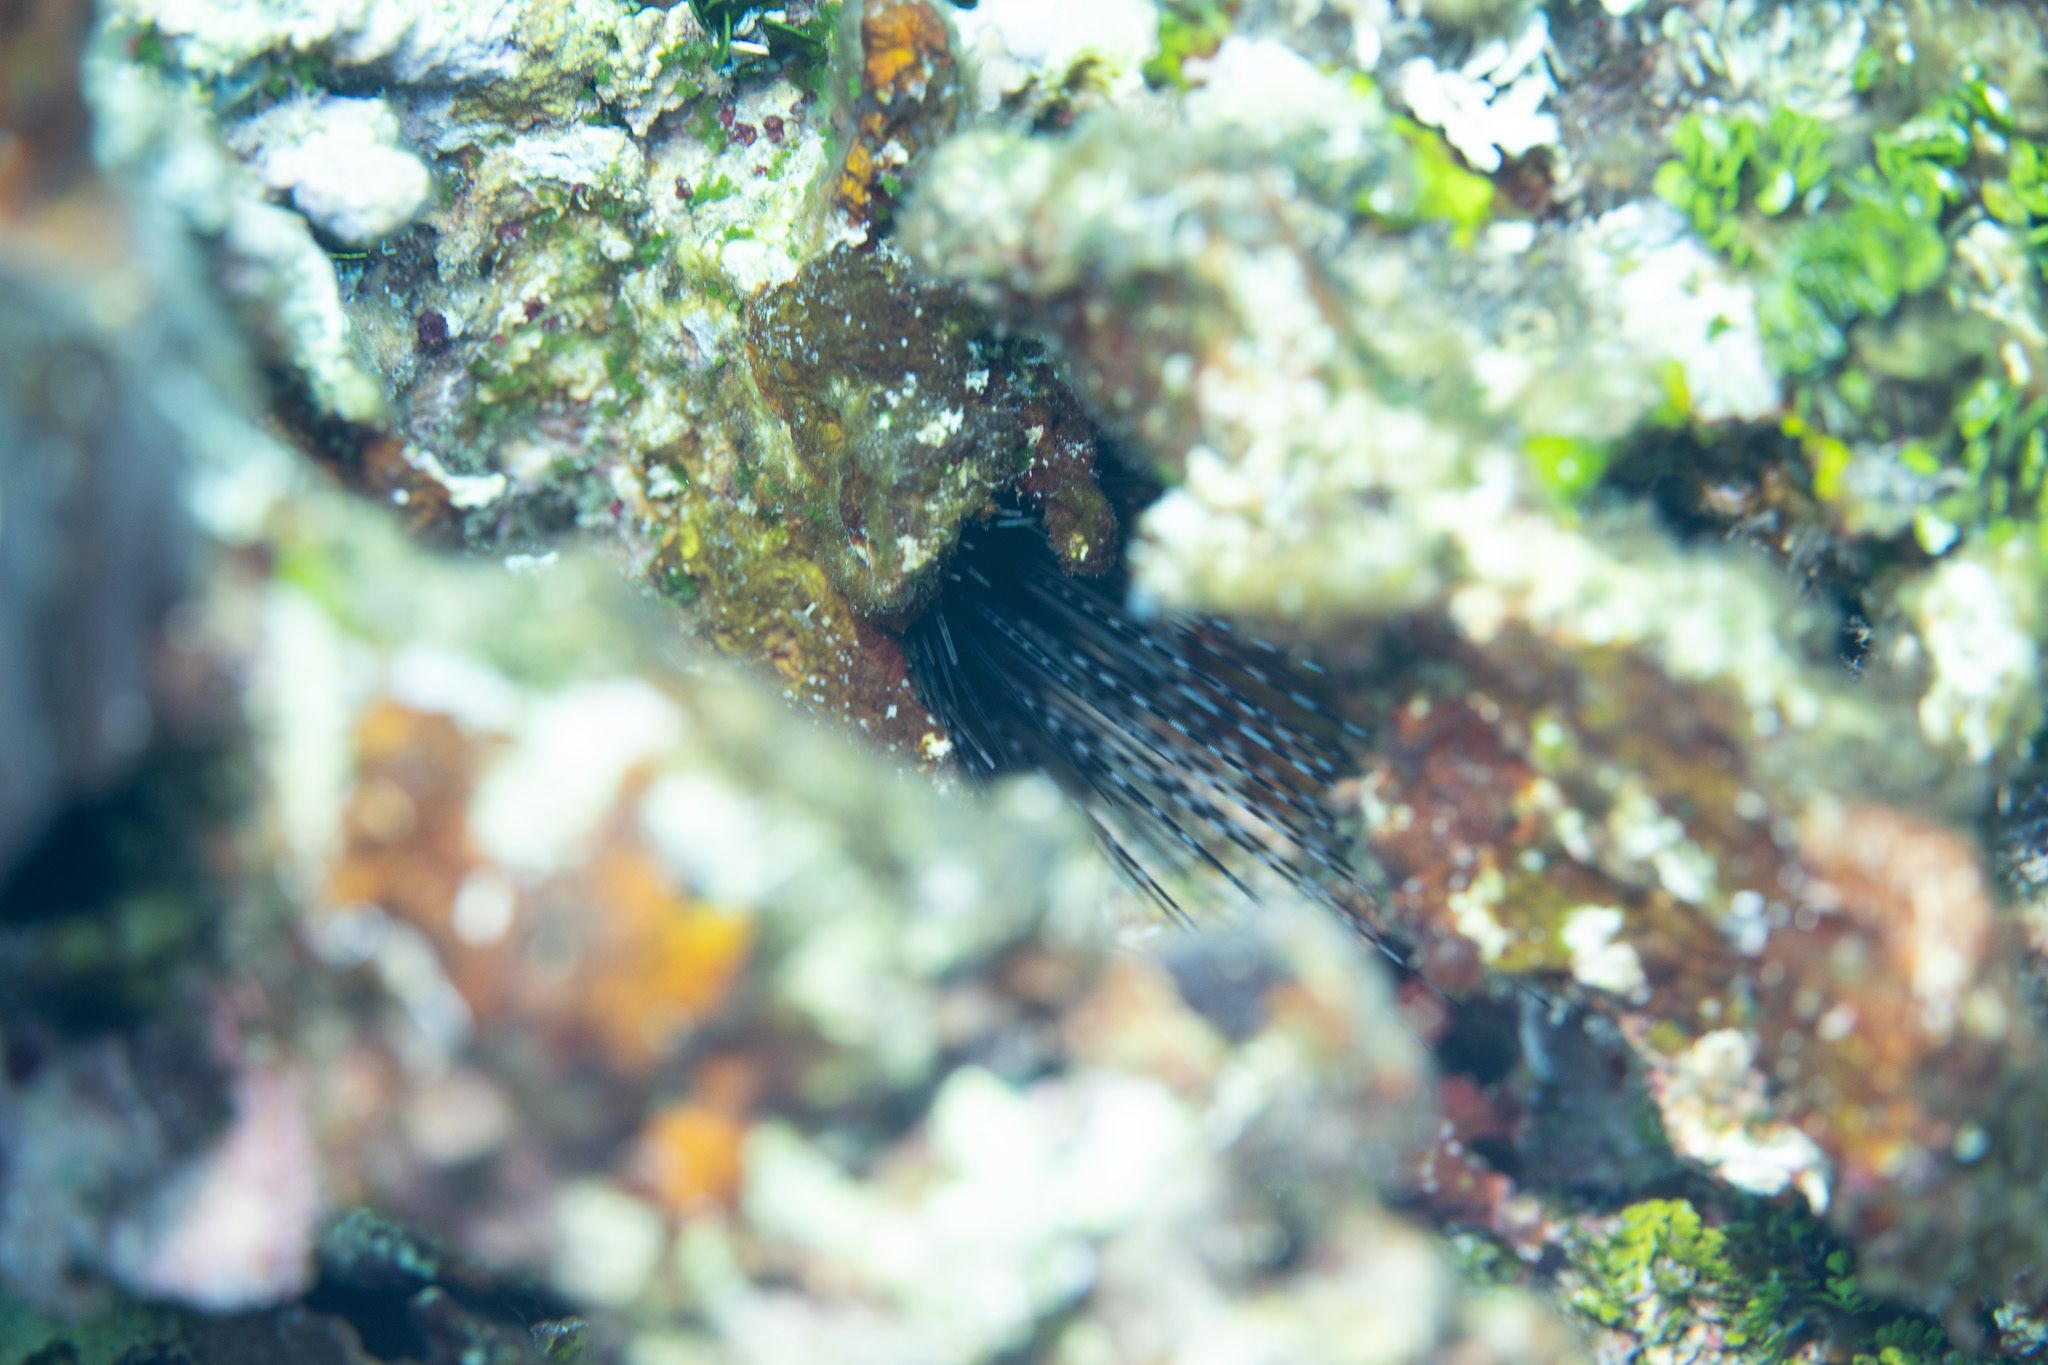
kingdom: Animalia
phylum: Echinodermata
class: Echinoidea
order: Diadematoida
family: Diadematidae
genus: Diadema
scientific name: Diadema antillarum
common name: Spiny urchin
